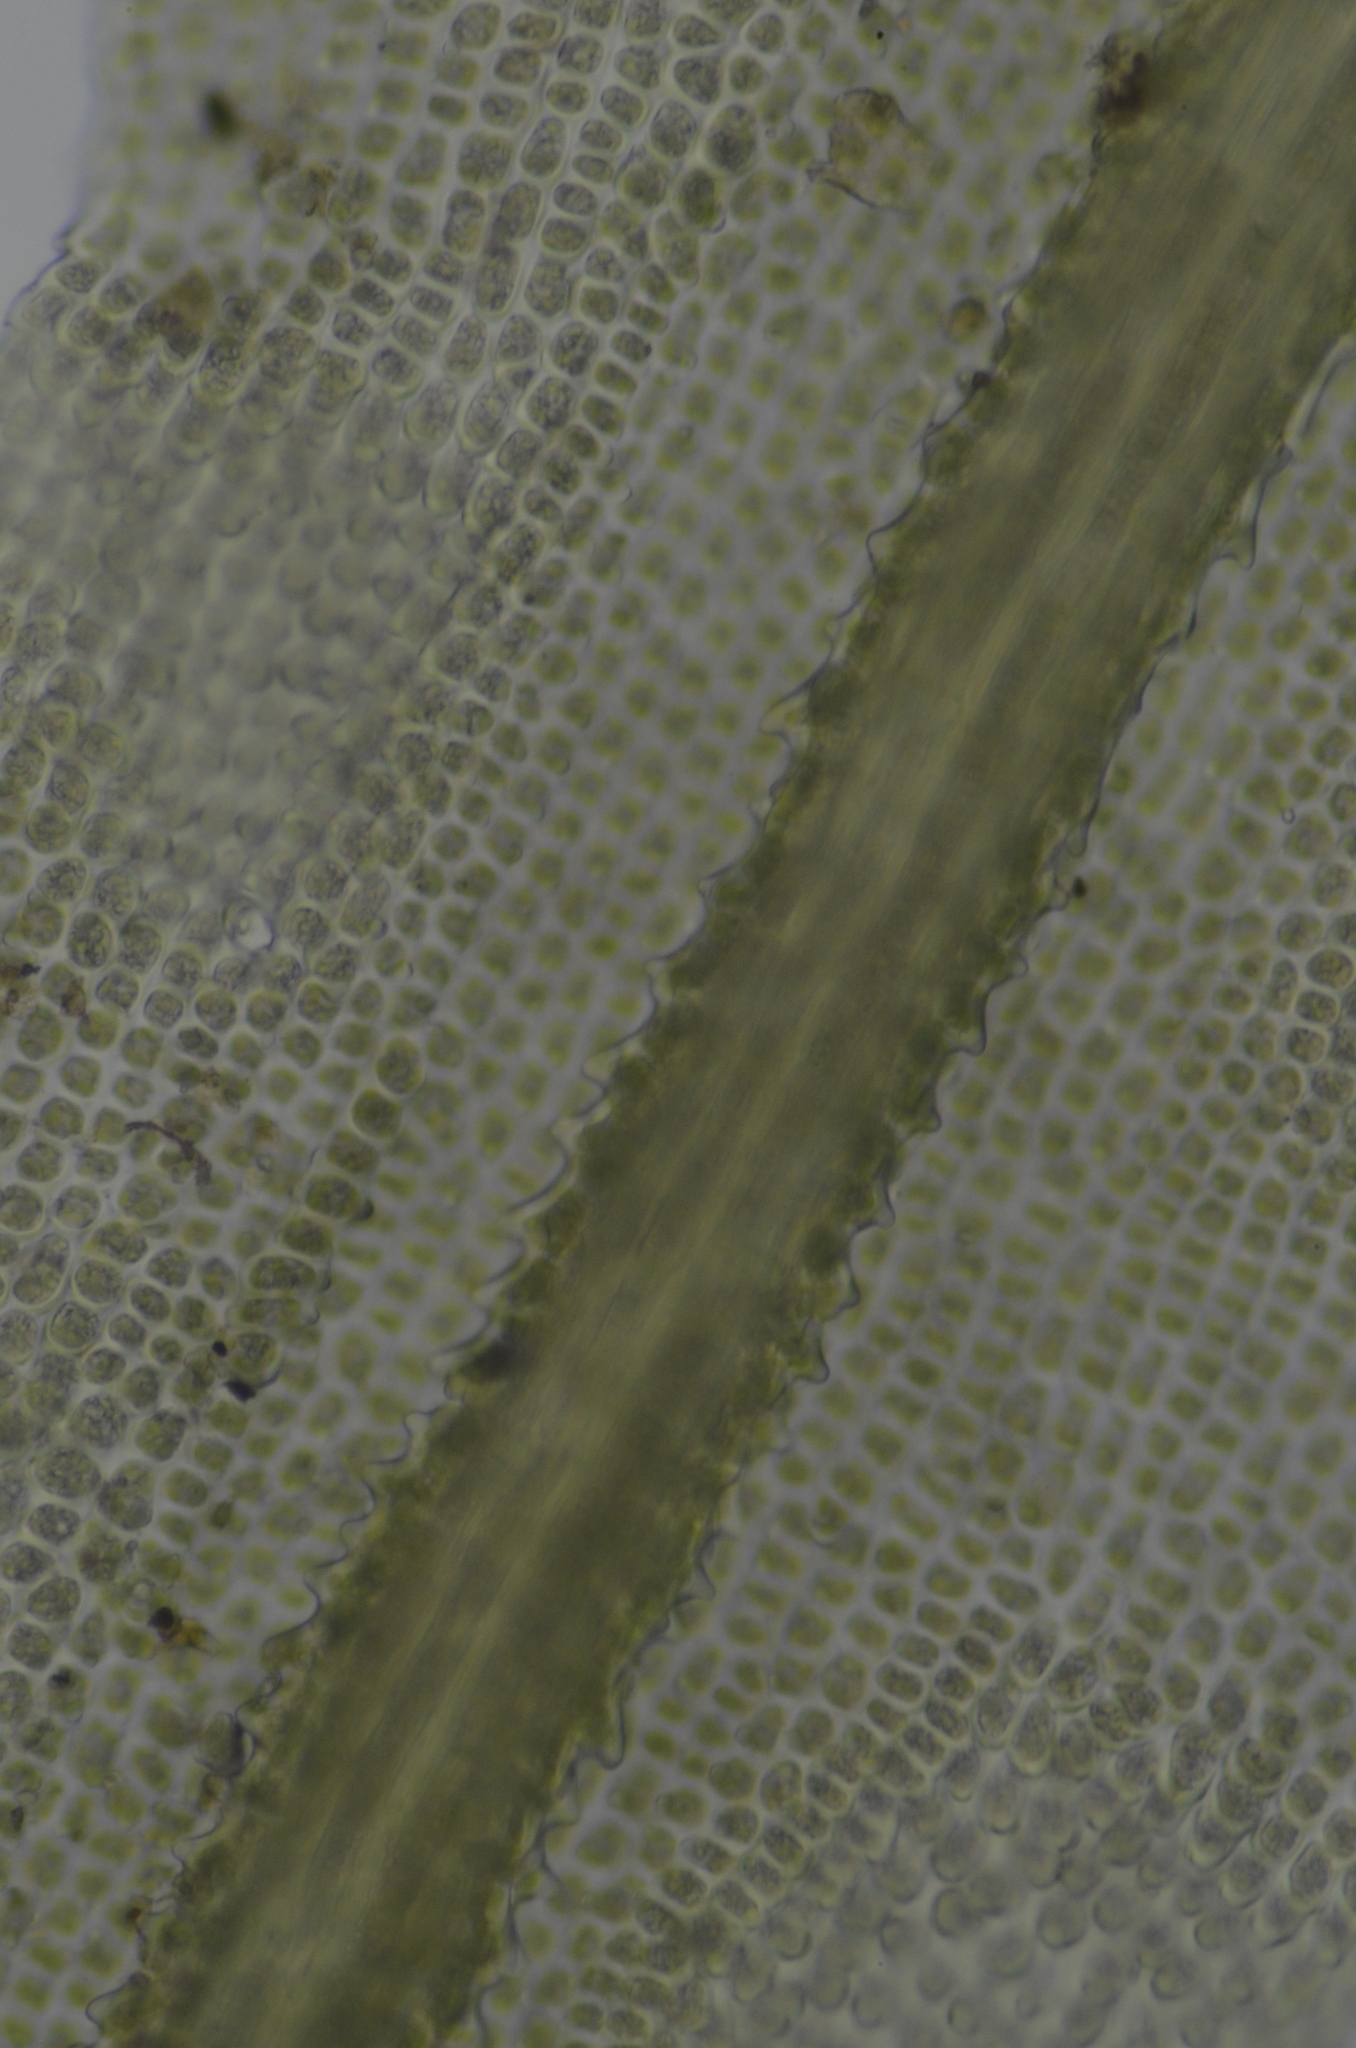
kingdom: Plantae
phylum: Bryophyta
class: Bryopsida
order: Dicranales
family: Aongstroemiaceae
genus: Dichodontium
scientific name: Dichodontium pellucidum
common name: Transparent fork moss
